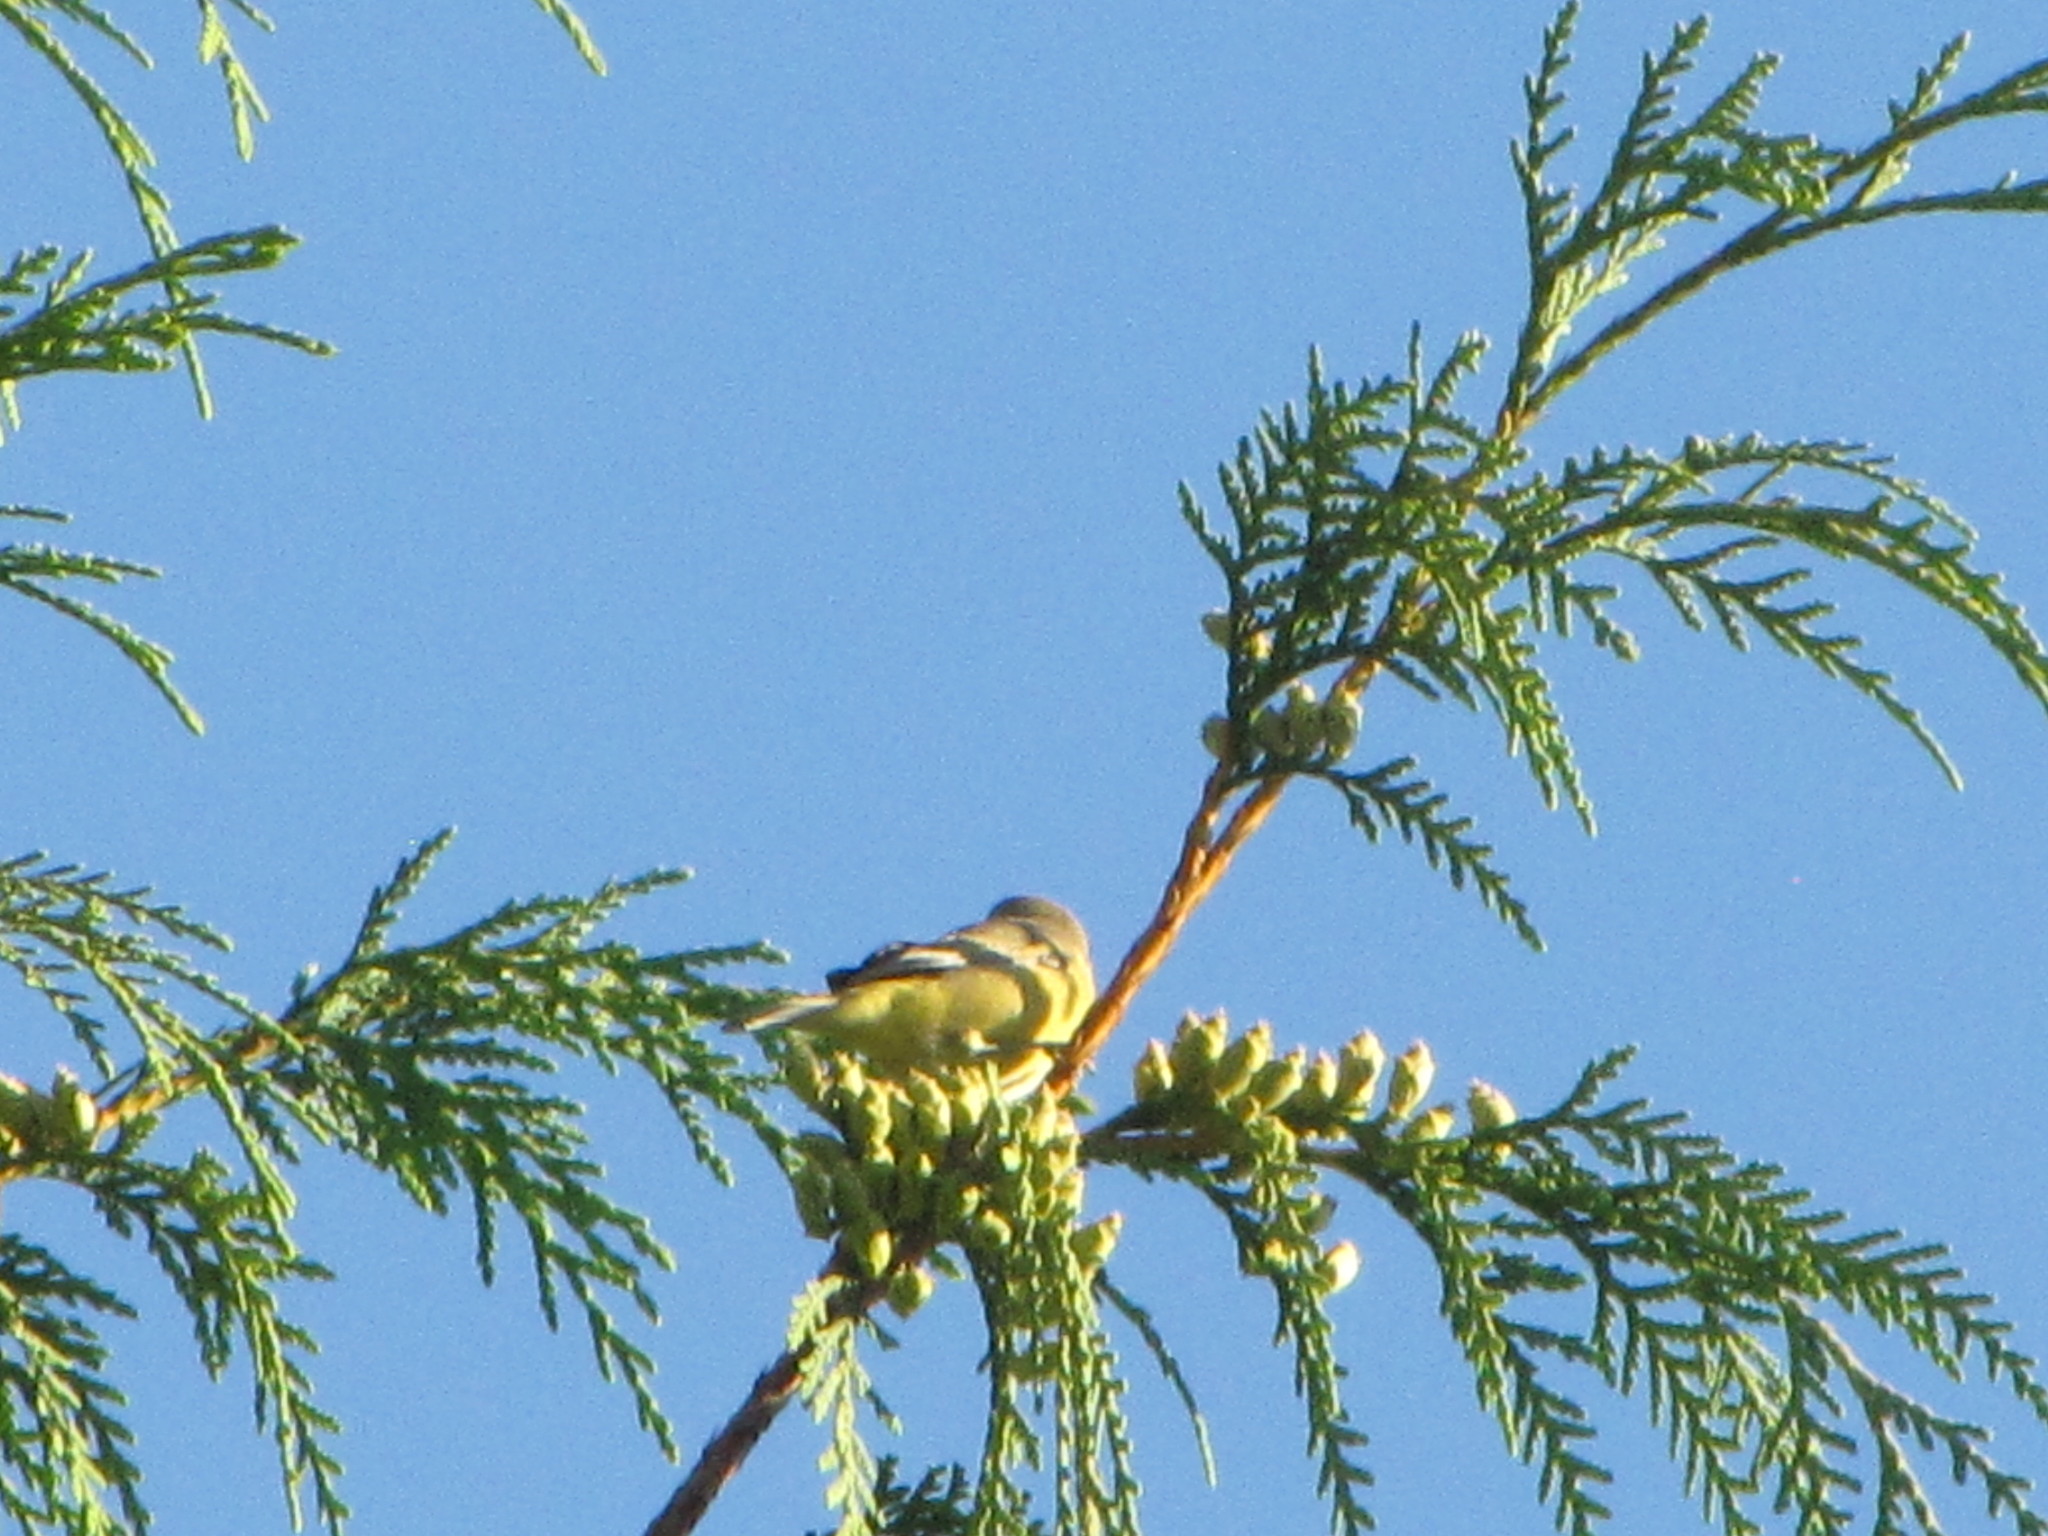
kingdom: Animalia
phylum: Chordata
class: Aves
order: Passeriformes
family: Parulidae
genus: Leiothlypis
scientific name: Leiothlypis celata
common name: Orange-crowned warbler
